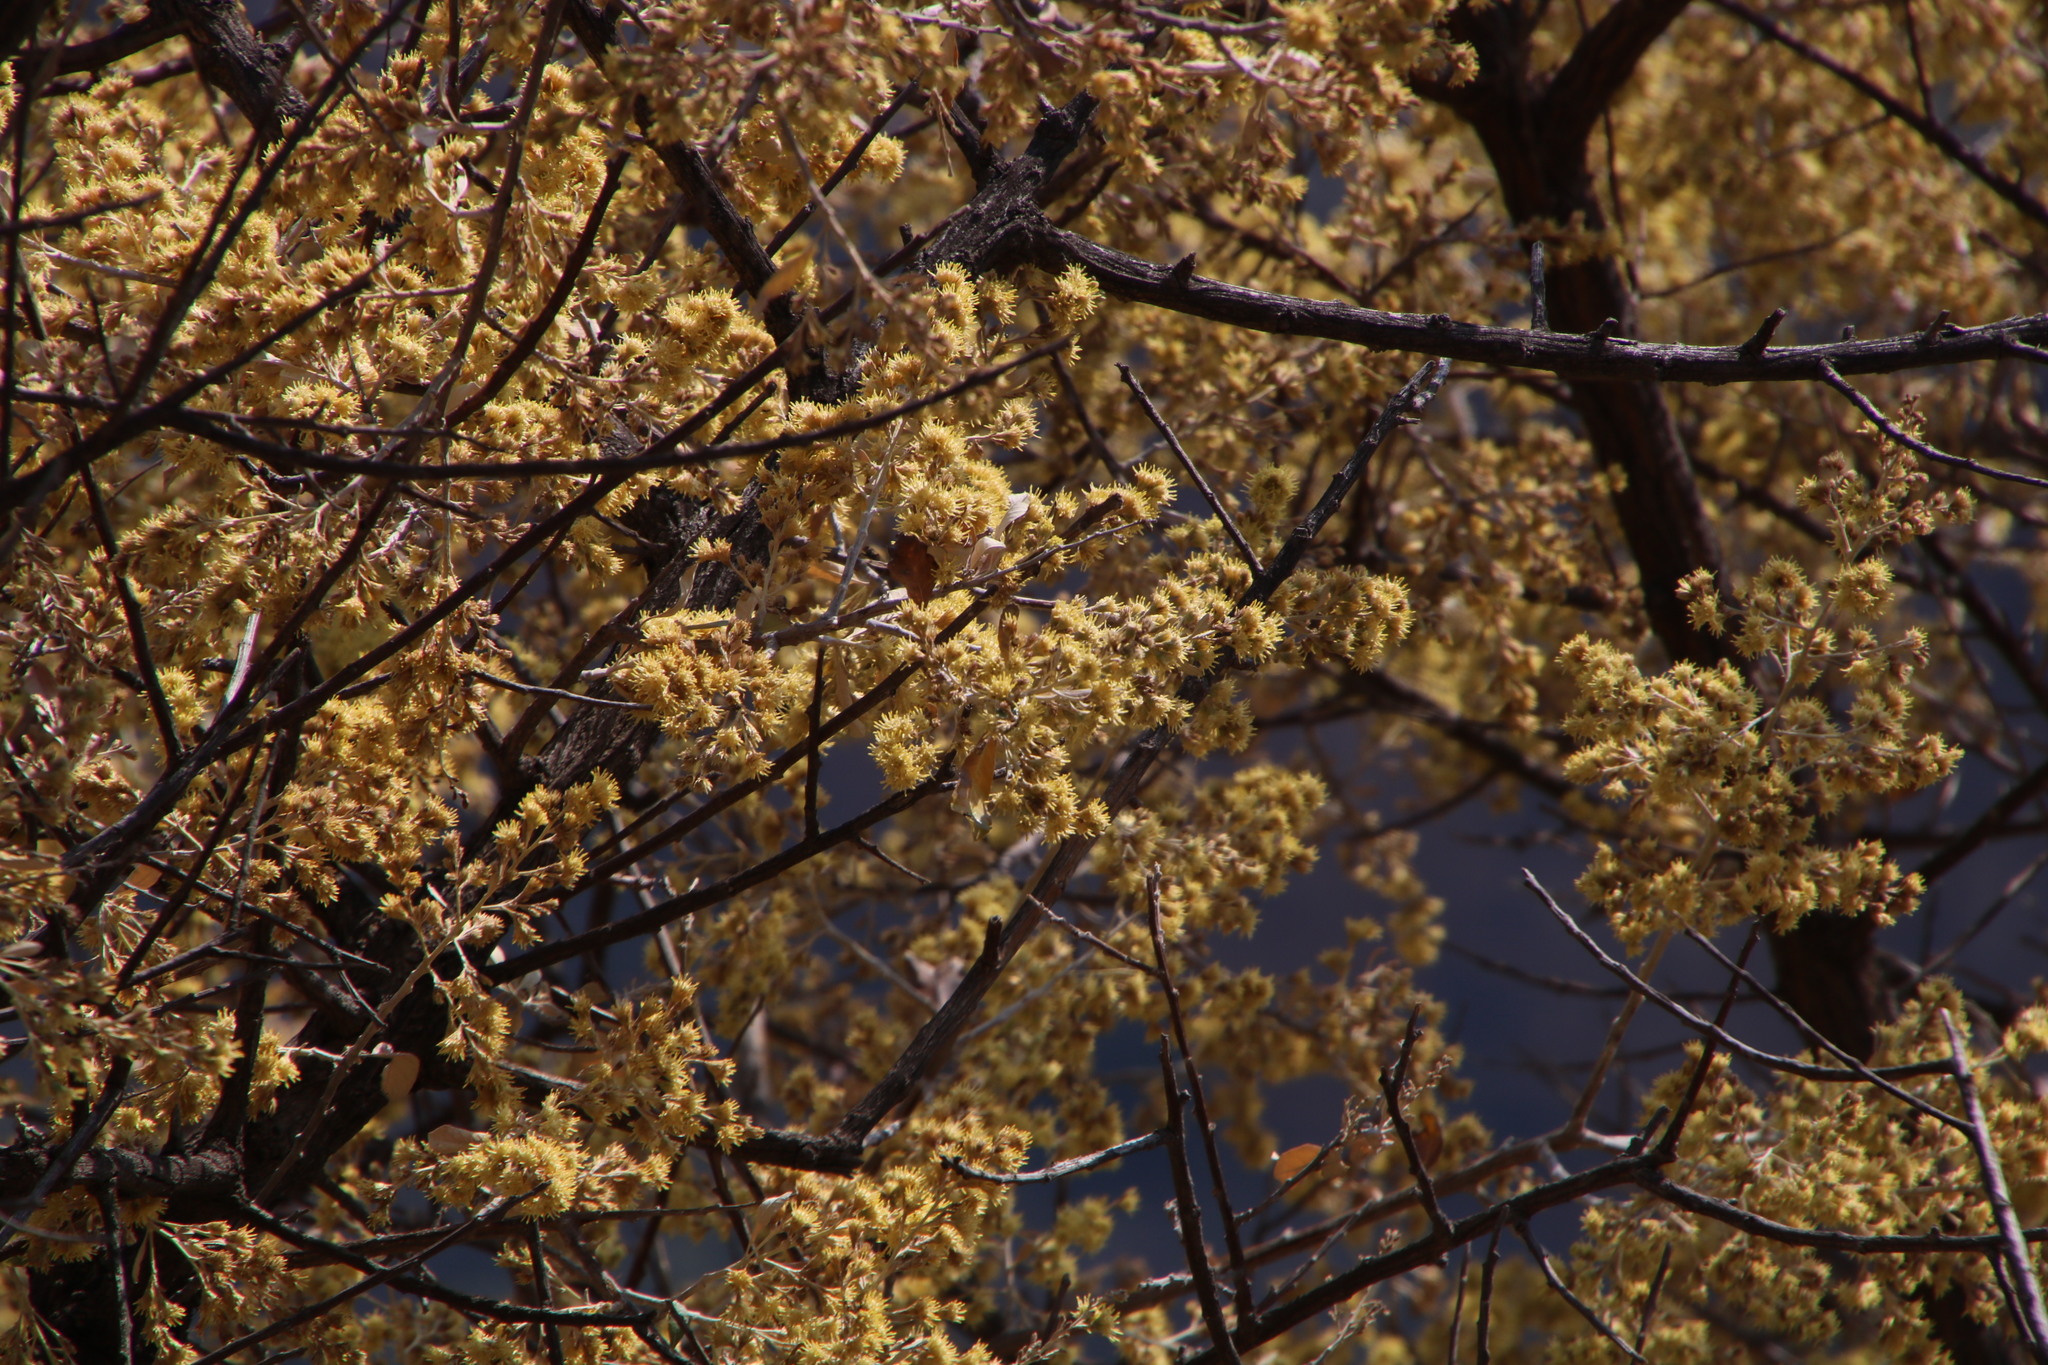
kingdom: Plantae
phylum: Tracheophyta
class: Magnoliopsida
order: Asterales
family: Asteraceae
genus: Brachylaena
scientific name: Brachylaena discolor
